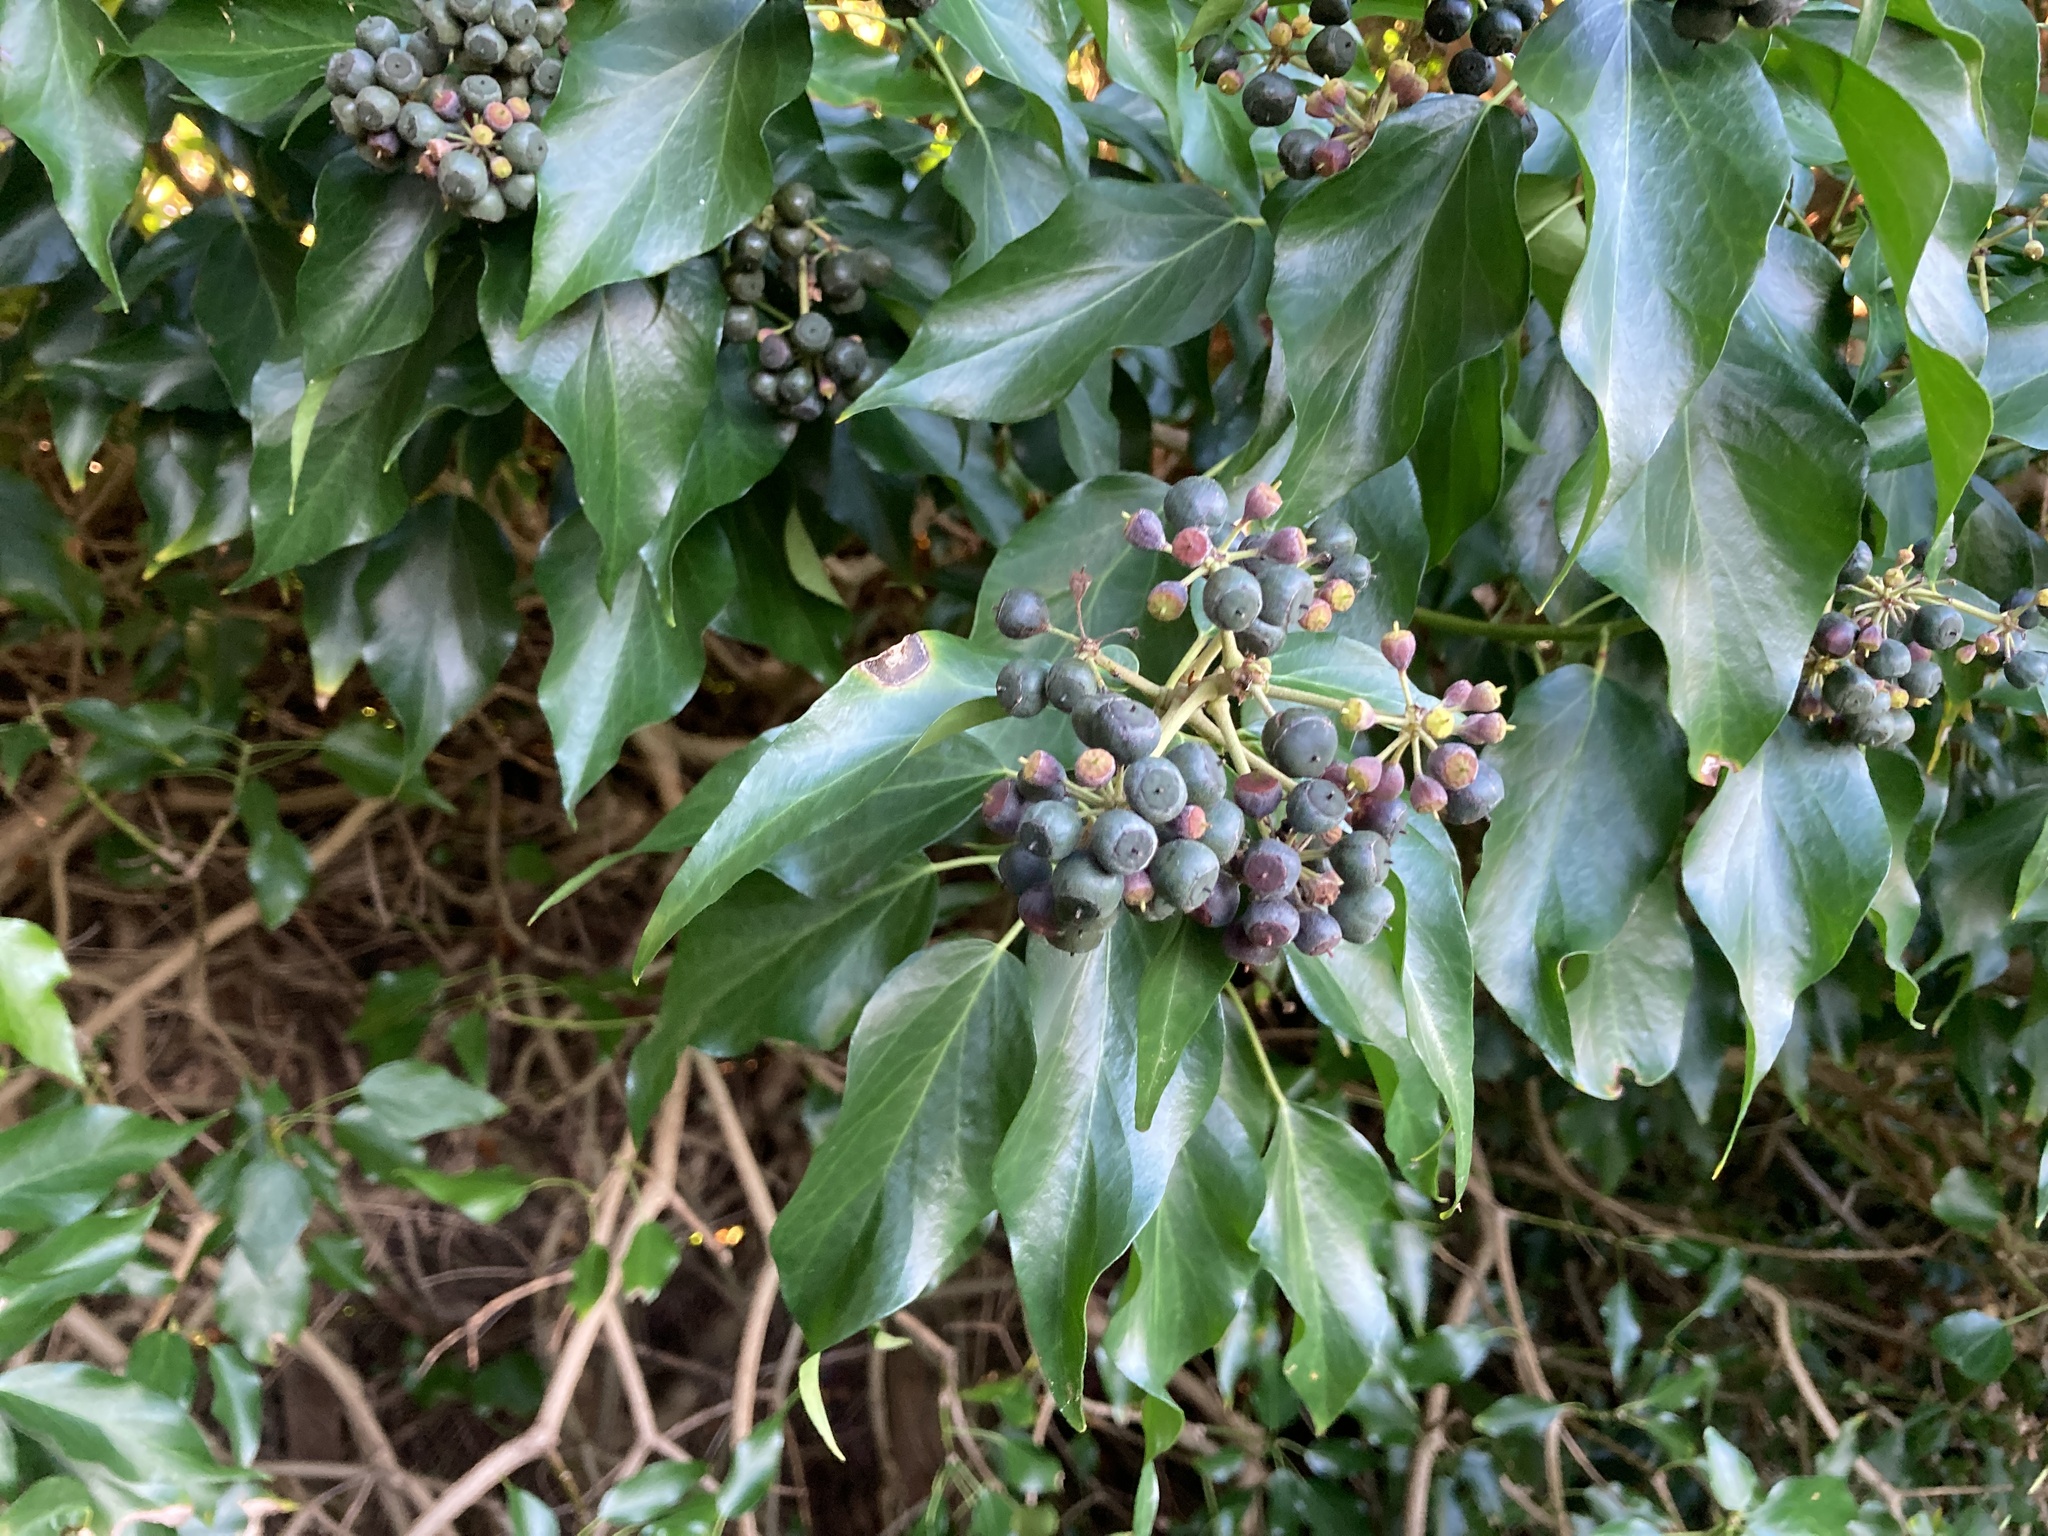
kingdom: Plantae
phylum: Tracheophyta
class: Magnoliopsida
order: Apiales
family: Araliaceae
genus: Hedera
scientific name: Hedera helix
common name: Ivy
